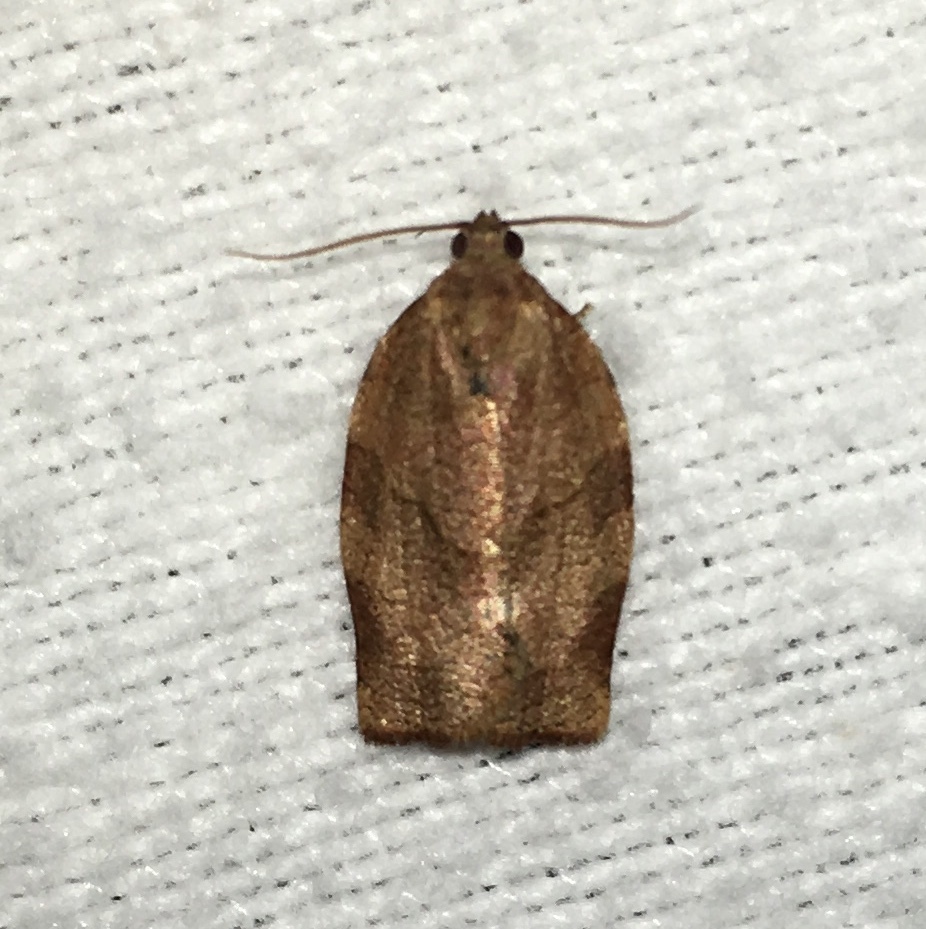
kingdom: Animalia
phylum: Arthropoda
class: Insecta
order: Lepidoptera
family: Tortricidae
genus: Choristoneura
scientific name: Choristoneura rosaceana
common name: Oblique-banded leafroller moth
